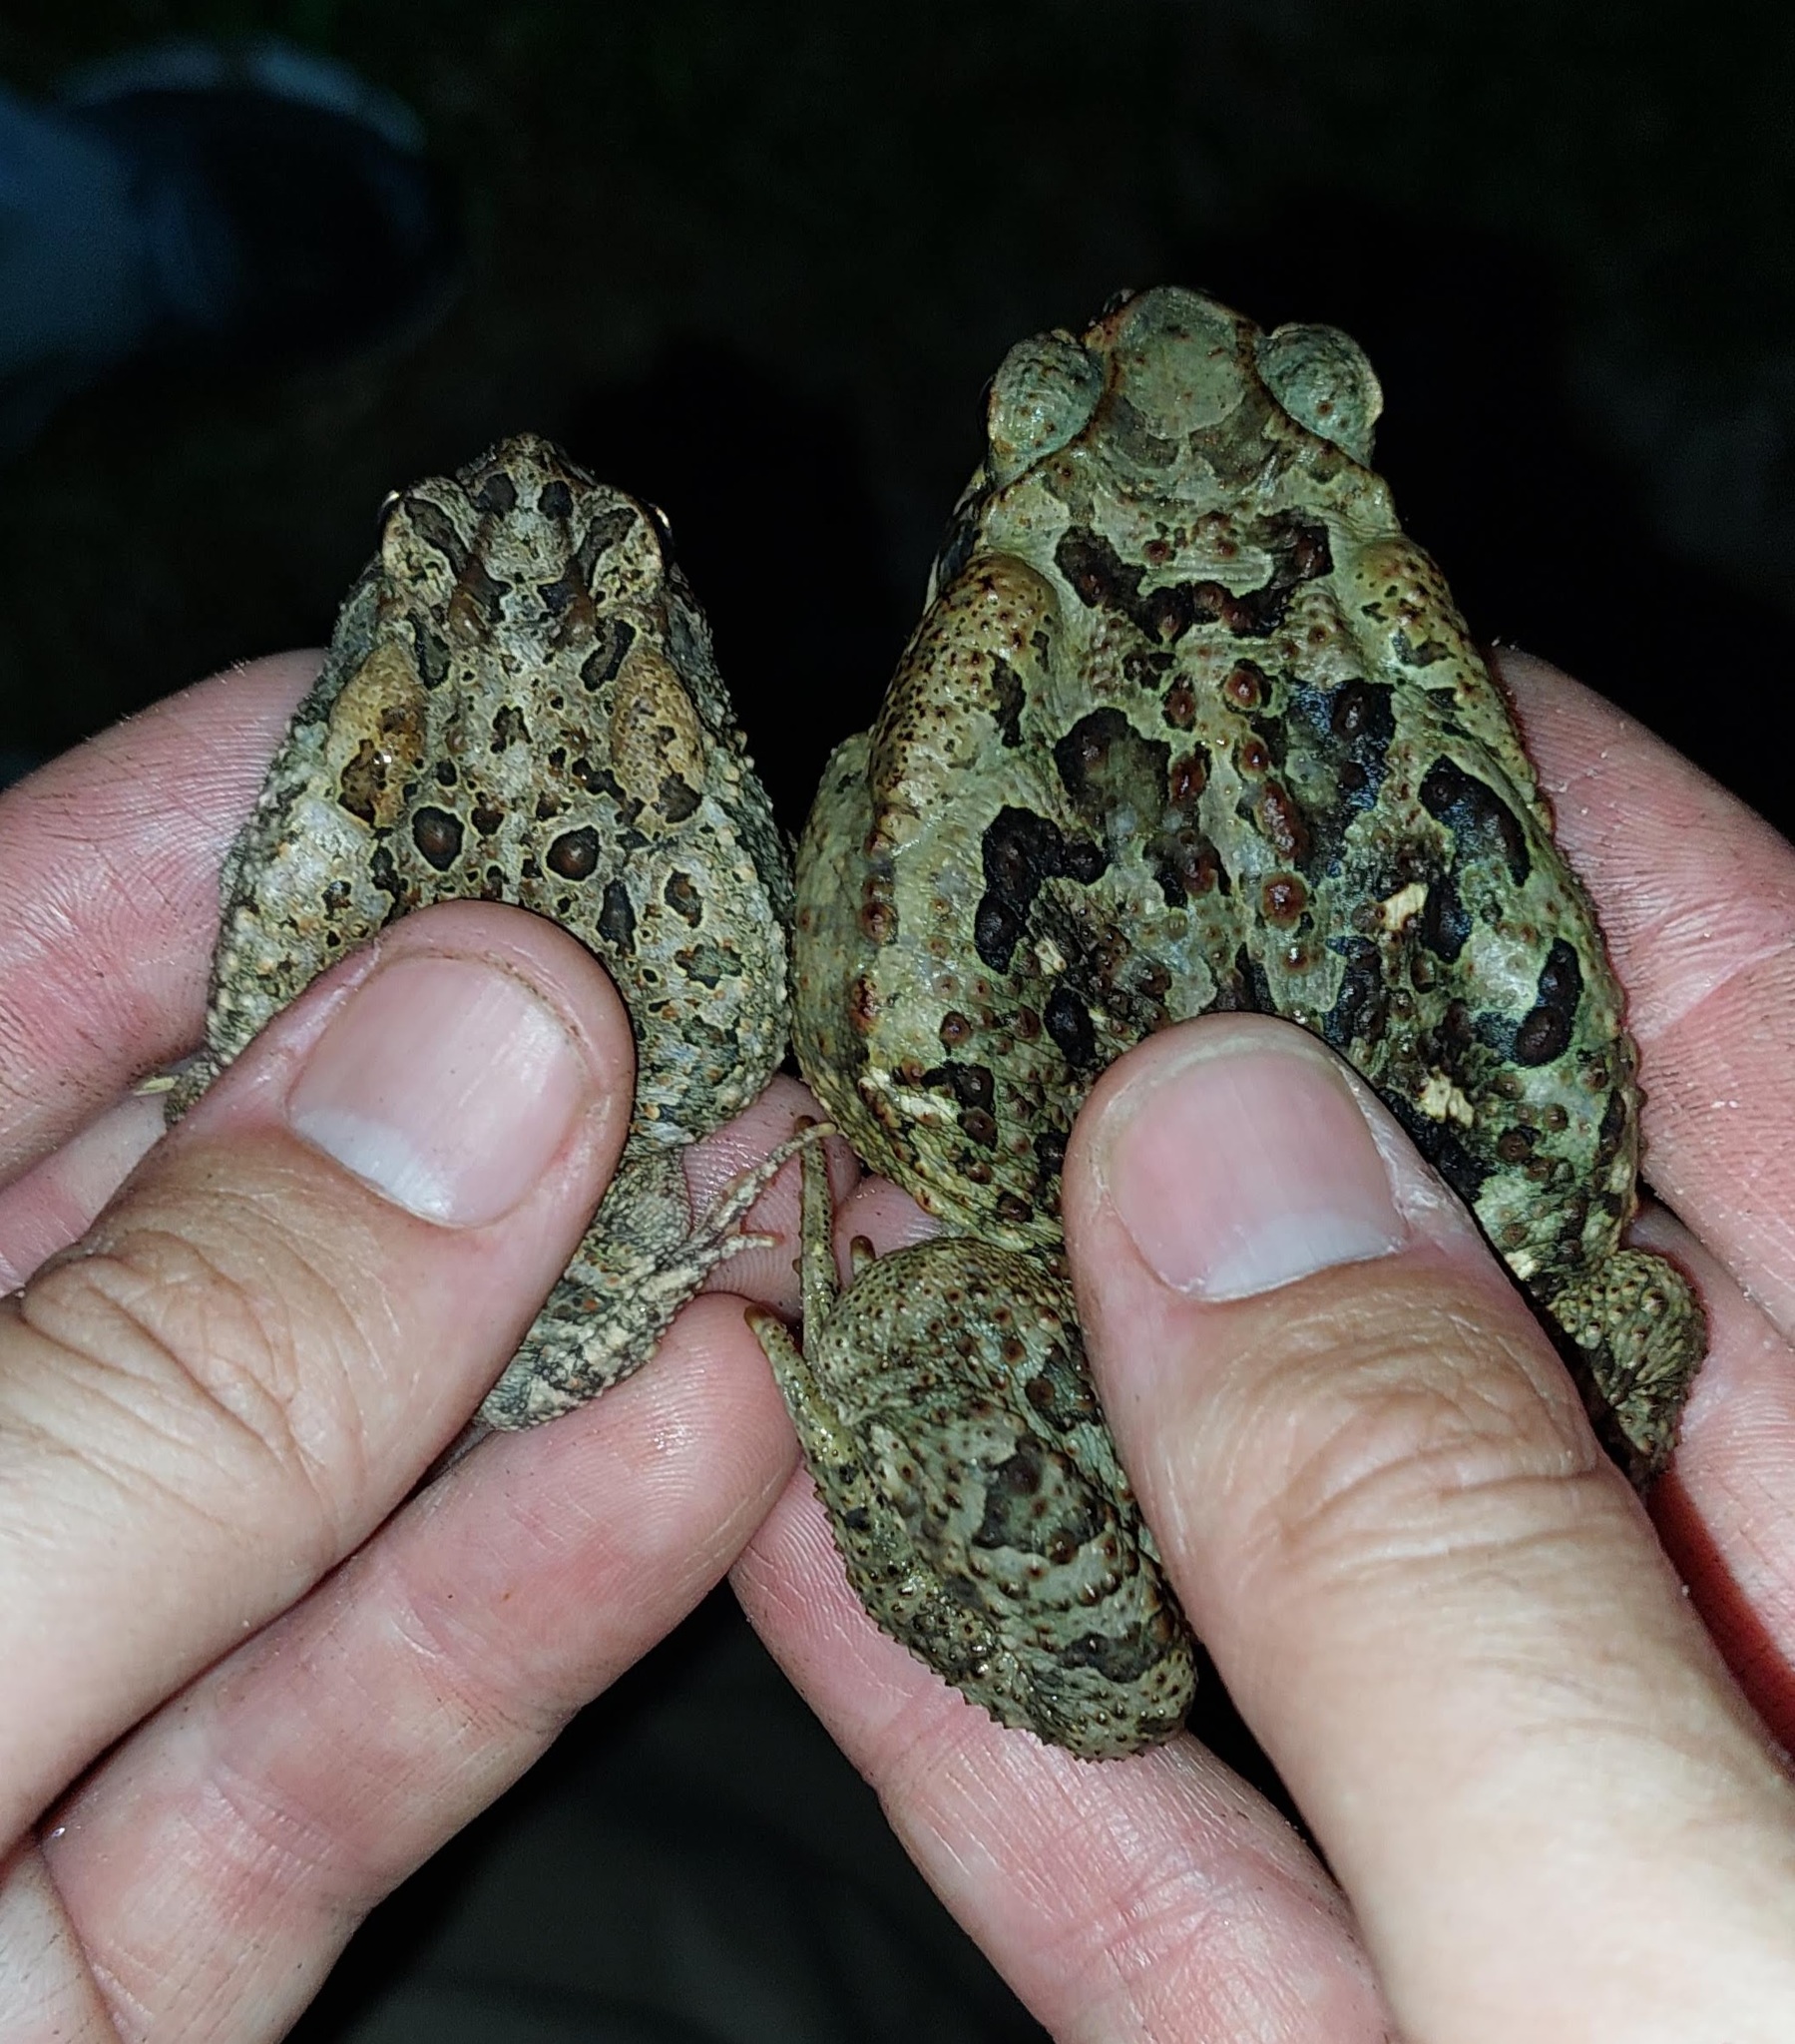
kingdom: Animalia
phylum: Chordata
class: Amphibia
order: Anura
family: Bufonidae
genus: Anaxyrus
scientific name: Anaxyrus terrestris
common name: Southern toad
